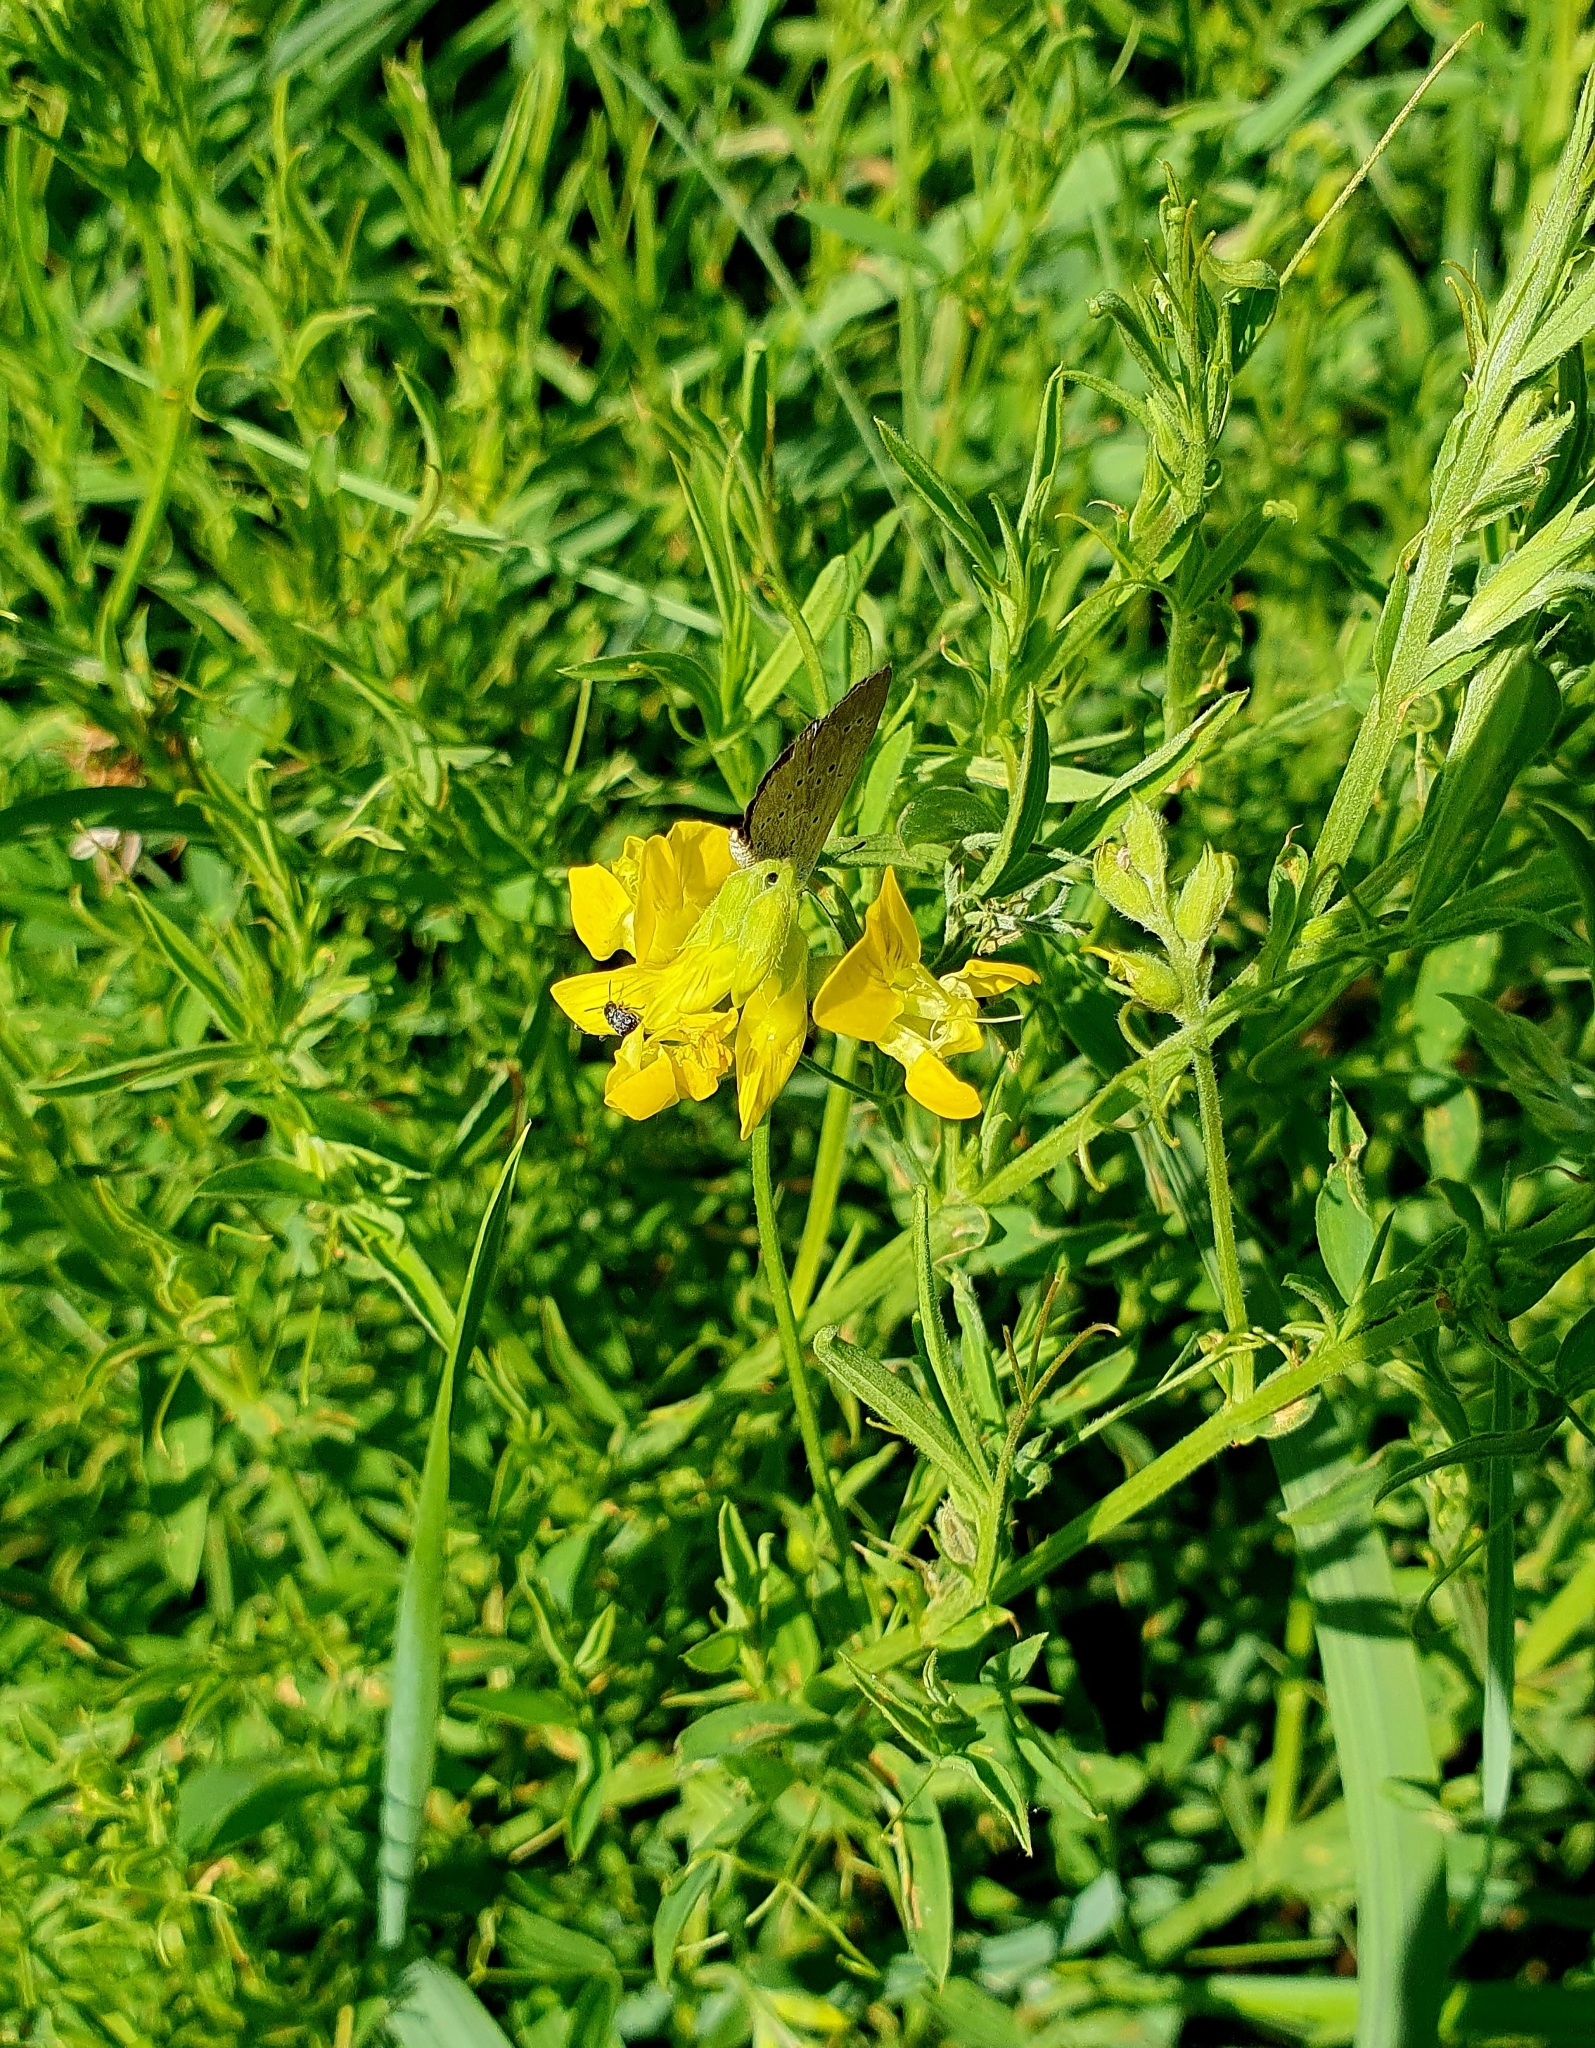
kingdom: Plantae
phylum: Tracheophyta
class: Magnoliopsida
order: Fabales
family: Fabaceae
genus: Lathyrus
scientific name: Lathyrus pratensis
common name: Meadow vetchling
